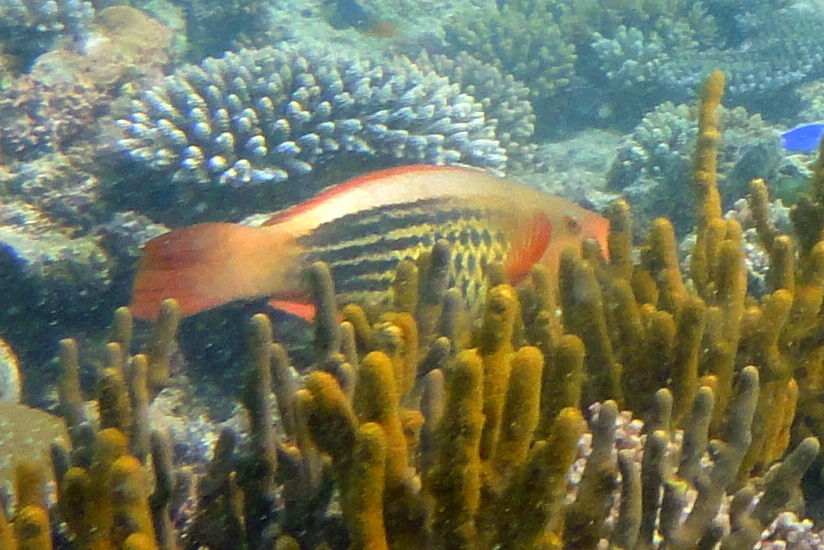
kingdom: Animalia
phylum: Chordata
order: Perciformes
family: Scaridae
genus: Scarus
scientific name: Scarus frenatus
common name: Bridled parrotfish
